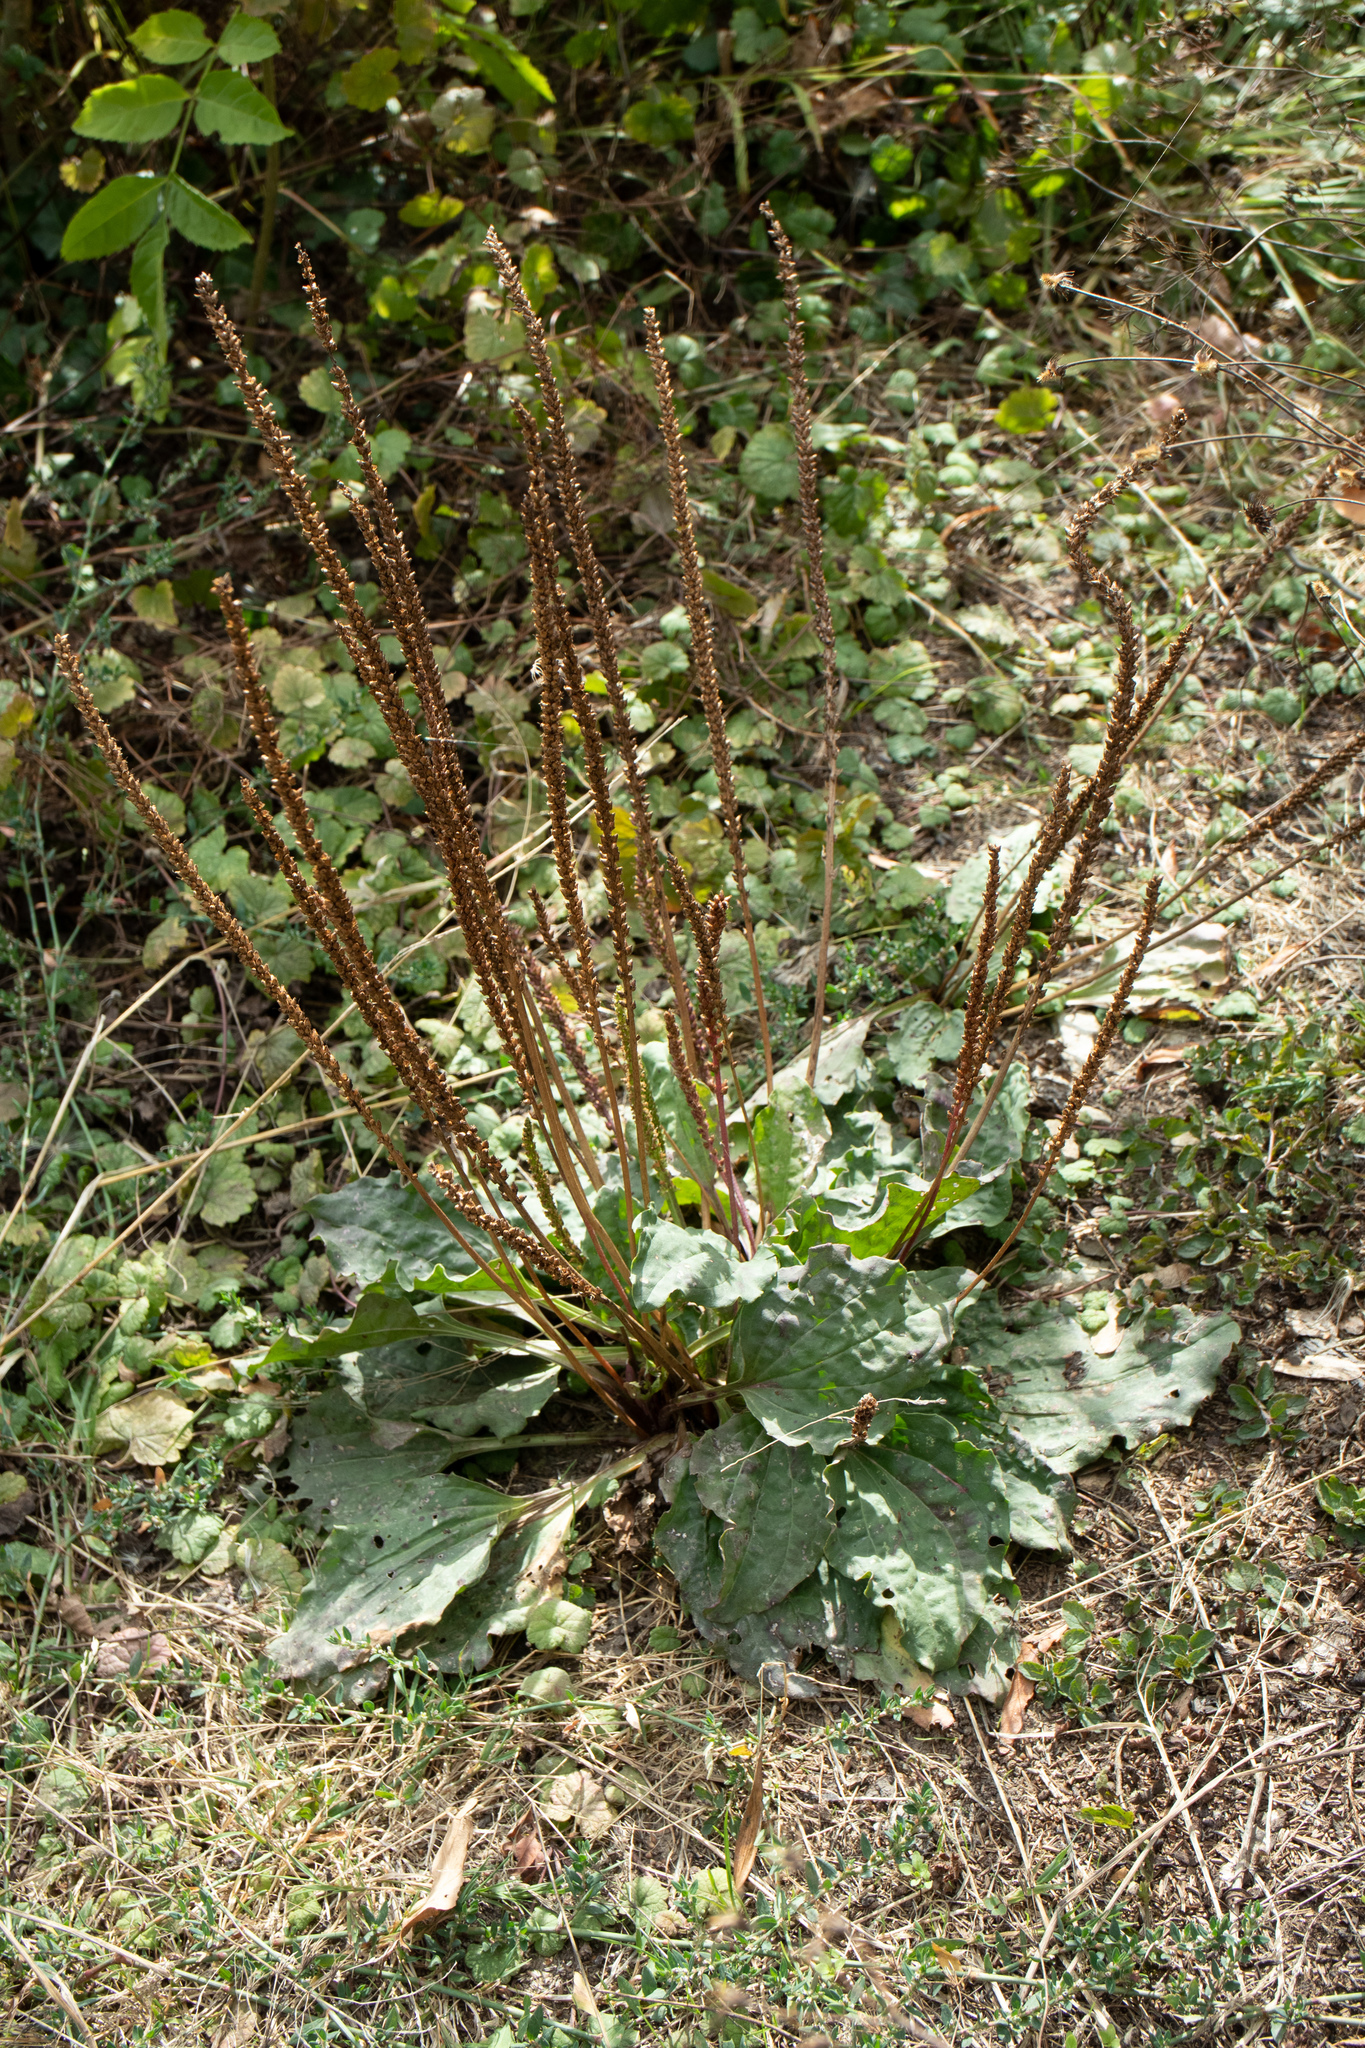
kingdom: Plantae
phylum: Tracheophyta
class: Magnoliopsida
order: Lamiales
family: Plantaginaceae
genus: Plantago
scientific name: Plantago major
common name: Common plantain
